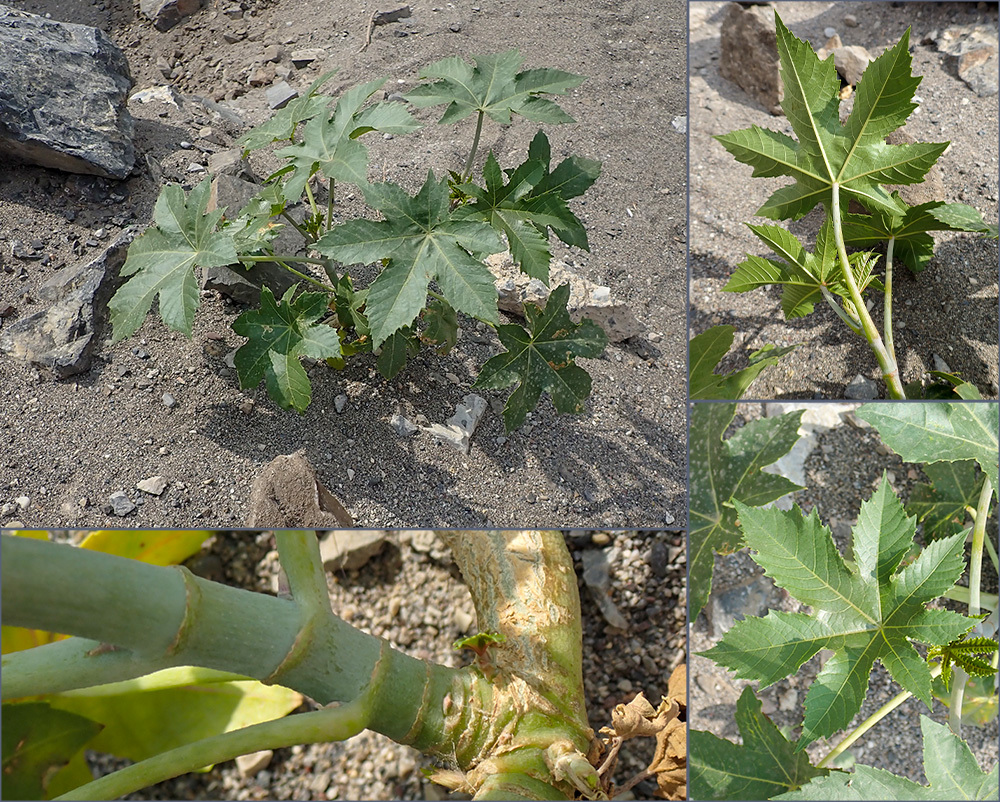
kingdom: Plantae
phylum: Tracheophyta
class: Magnoliopsida
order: Malpighiales
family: Euphorbiaceae
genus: Ricinus
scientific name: Ricinus communis
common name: Castor-oil-plant
